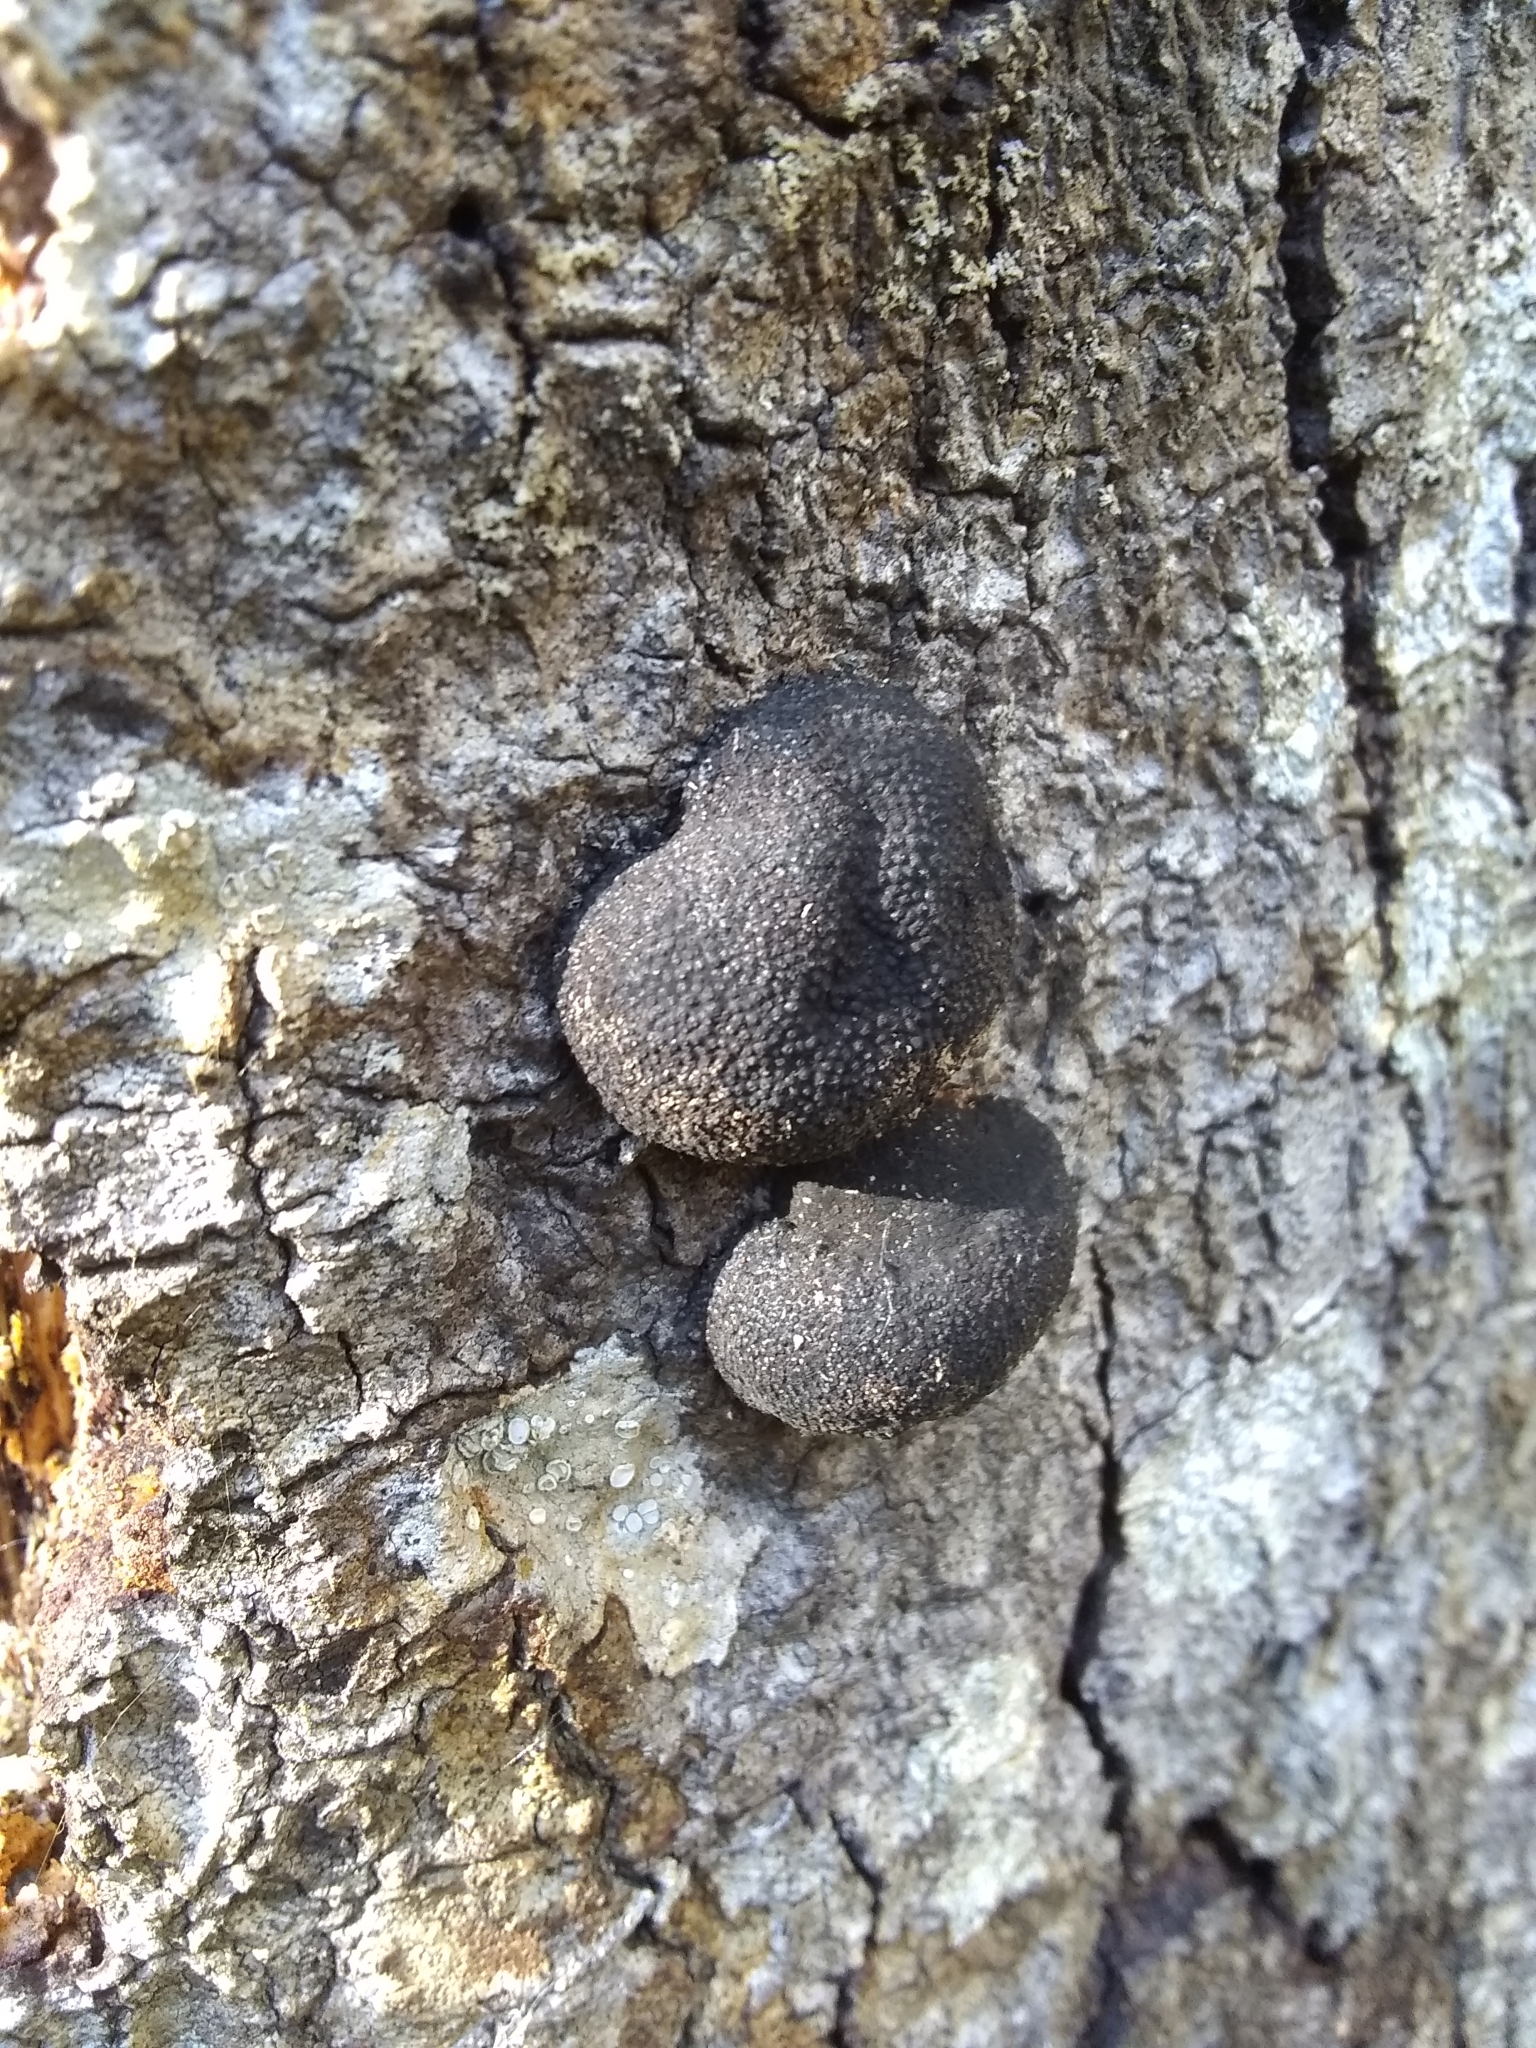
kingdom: Fungi
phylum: Ascomycota
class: Sordariomycetes
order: Xylariales
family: Hypoxylaceae
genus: Annulohypoxylon
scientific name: Annulohypoxylon thouarsianum
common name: Cramp balls
